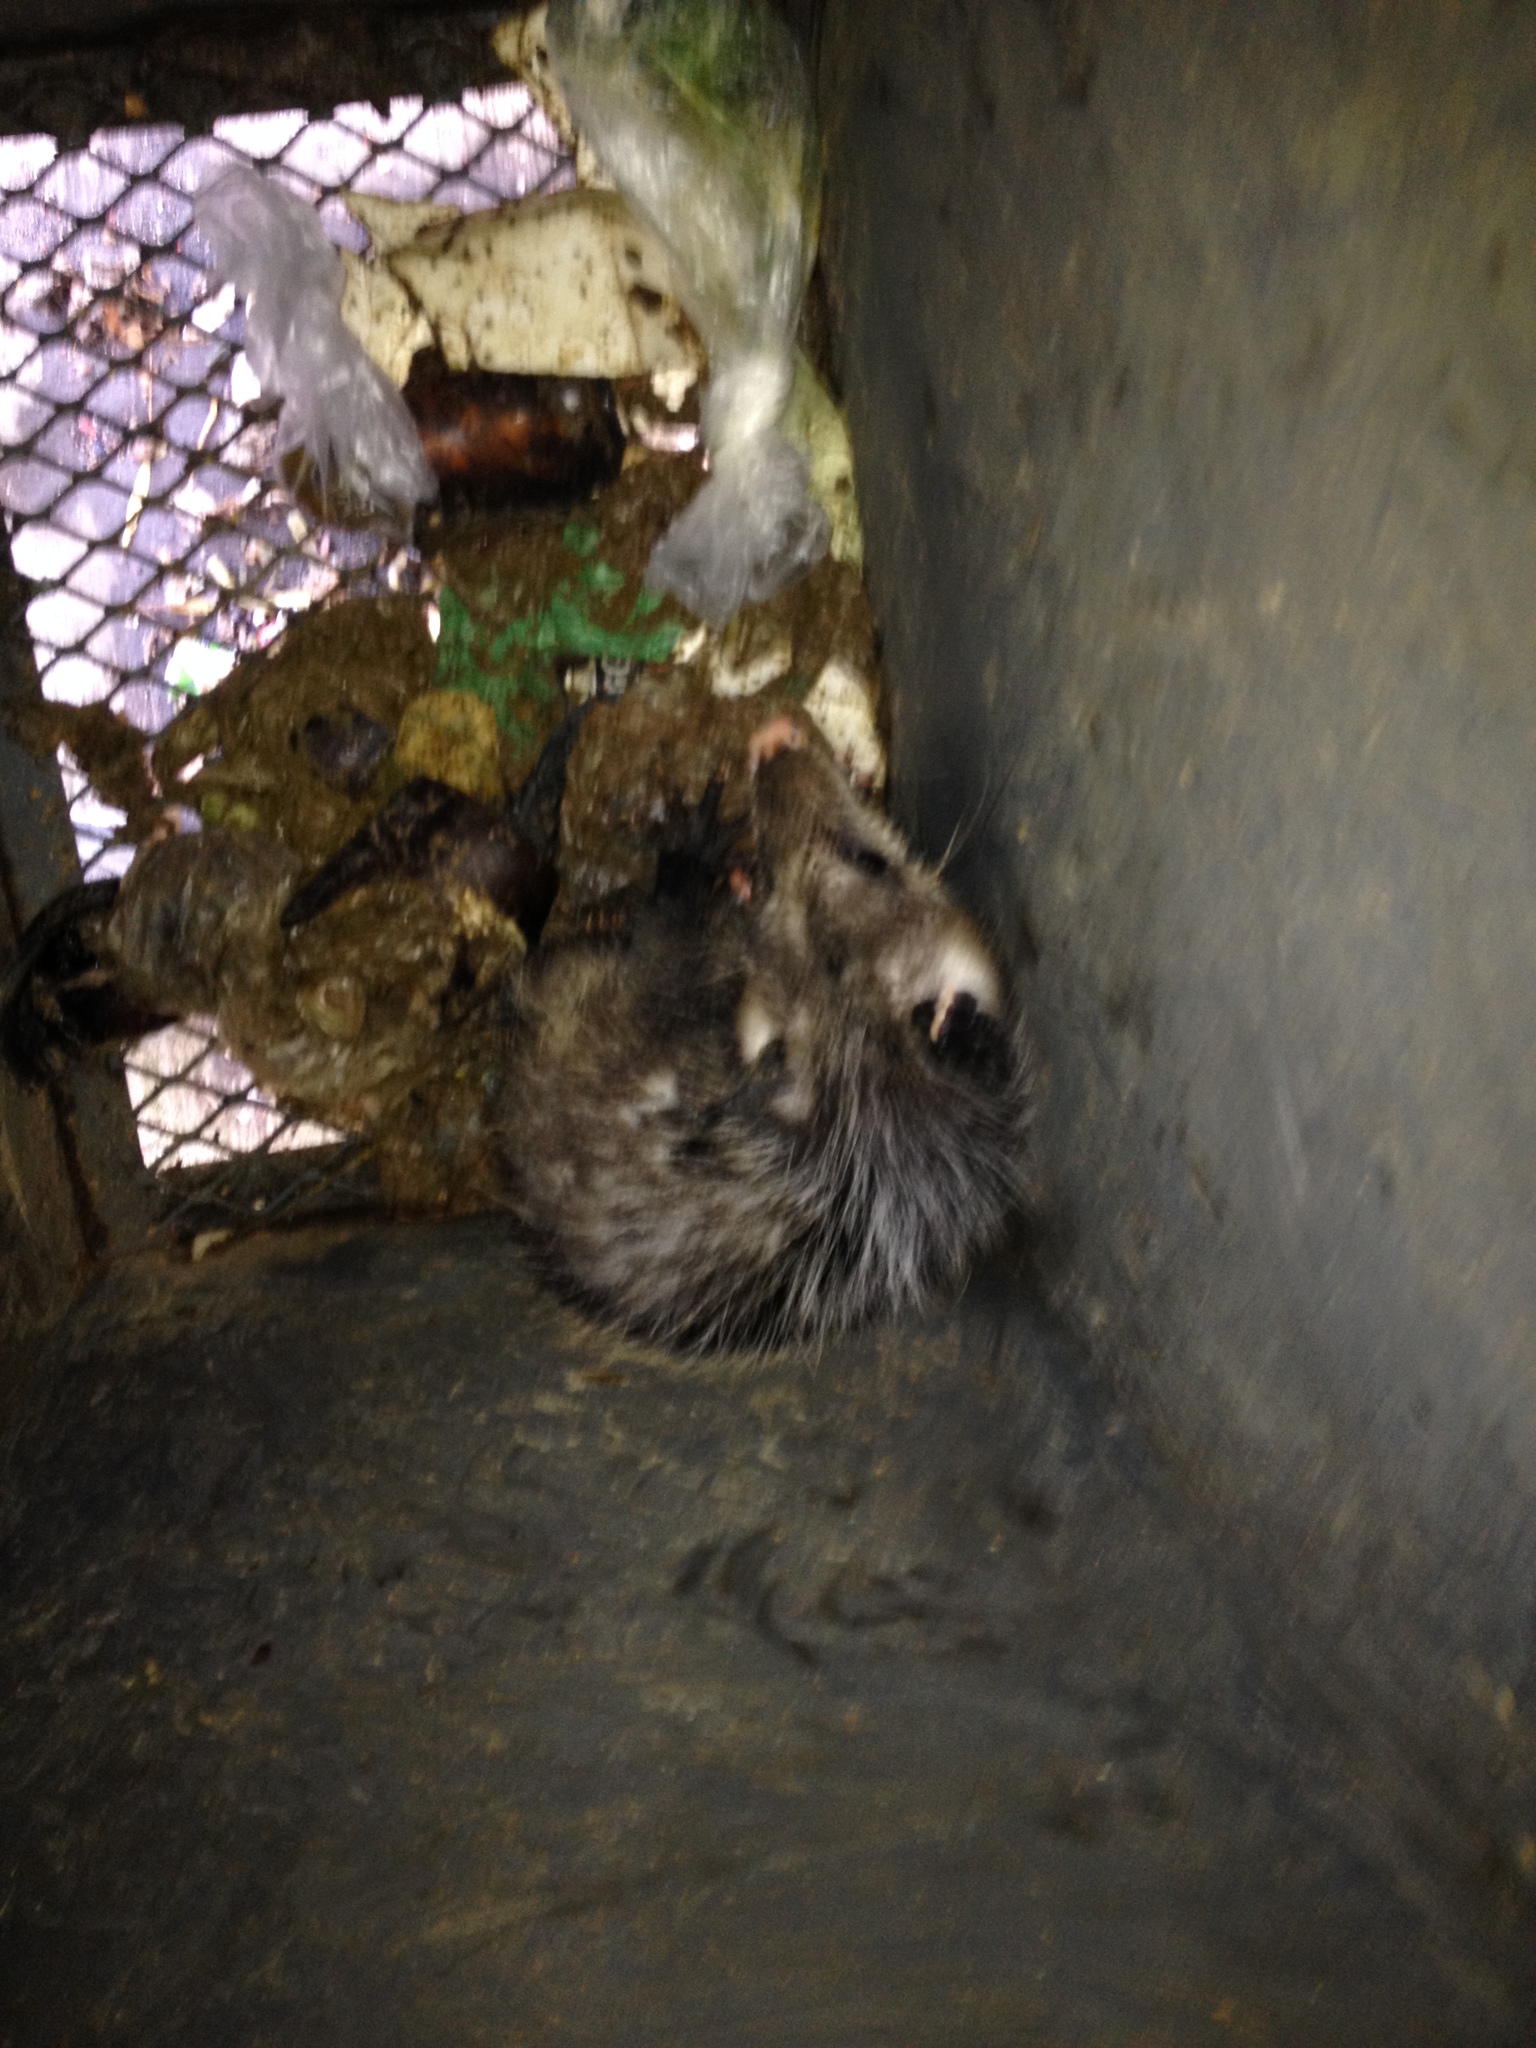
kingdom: Animalia
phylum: Chordata
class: Mammalia
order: Didelphimorphia
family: Didelphidae
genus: Didelphis
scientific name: Didelphis virginiana
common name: Virginia opossum
